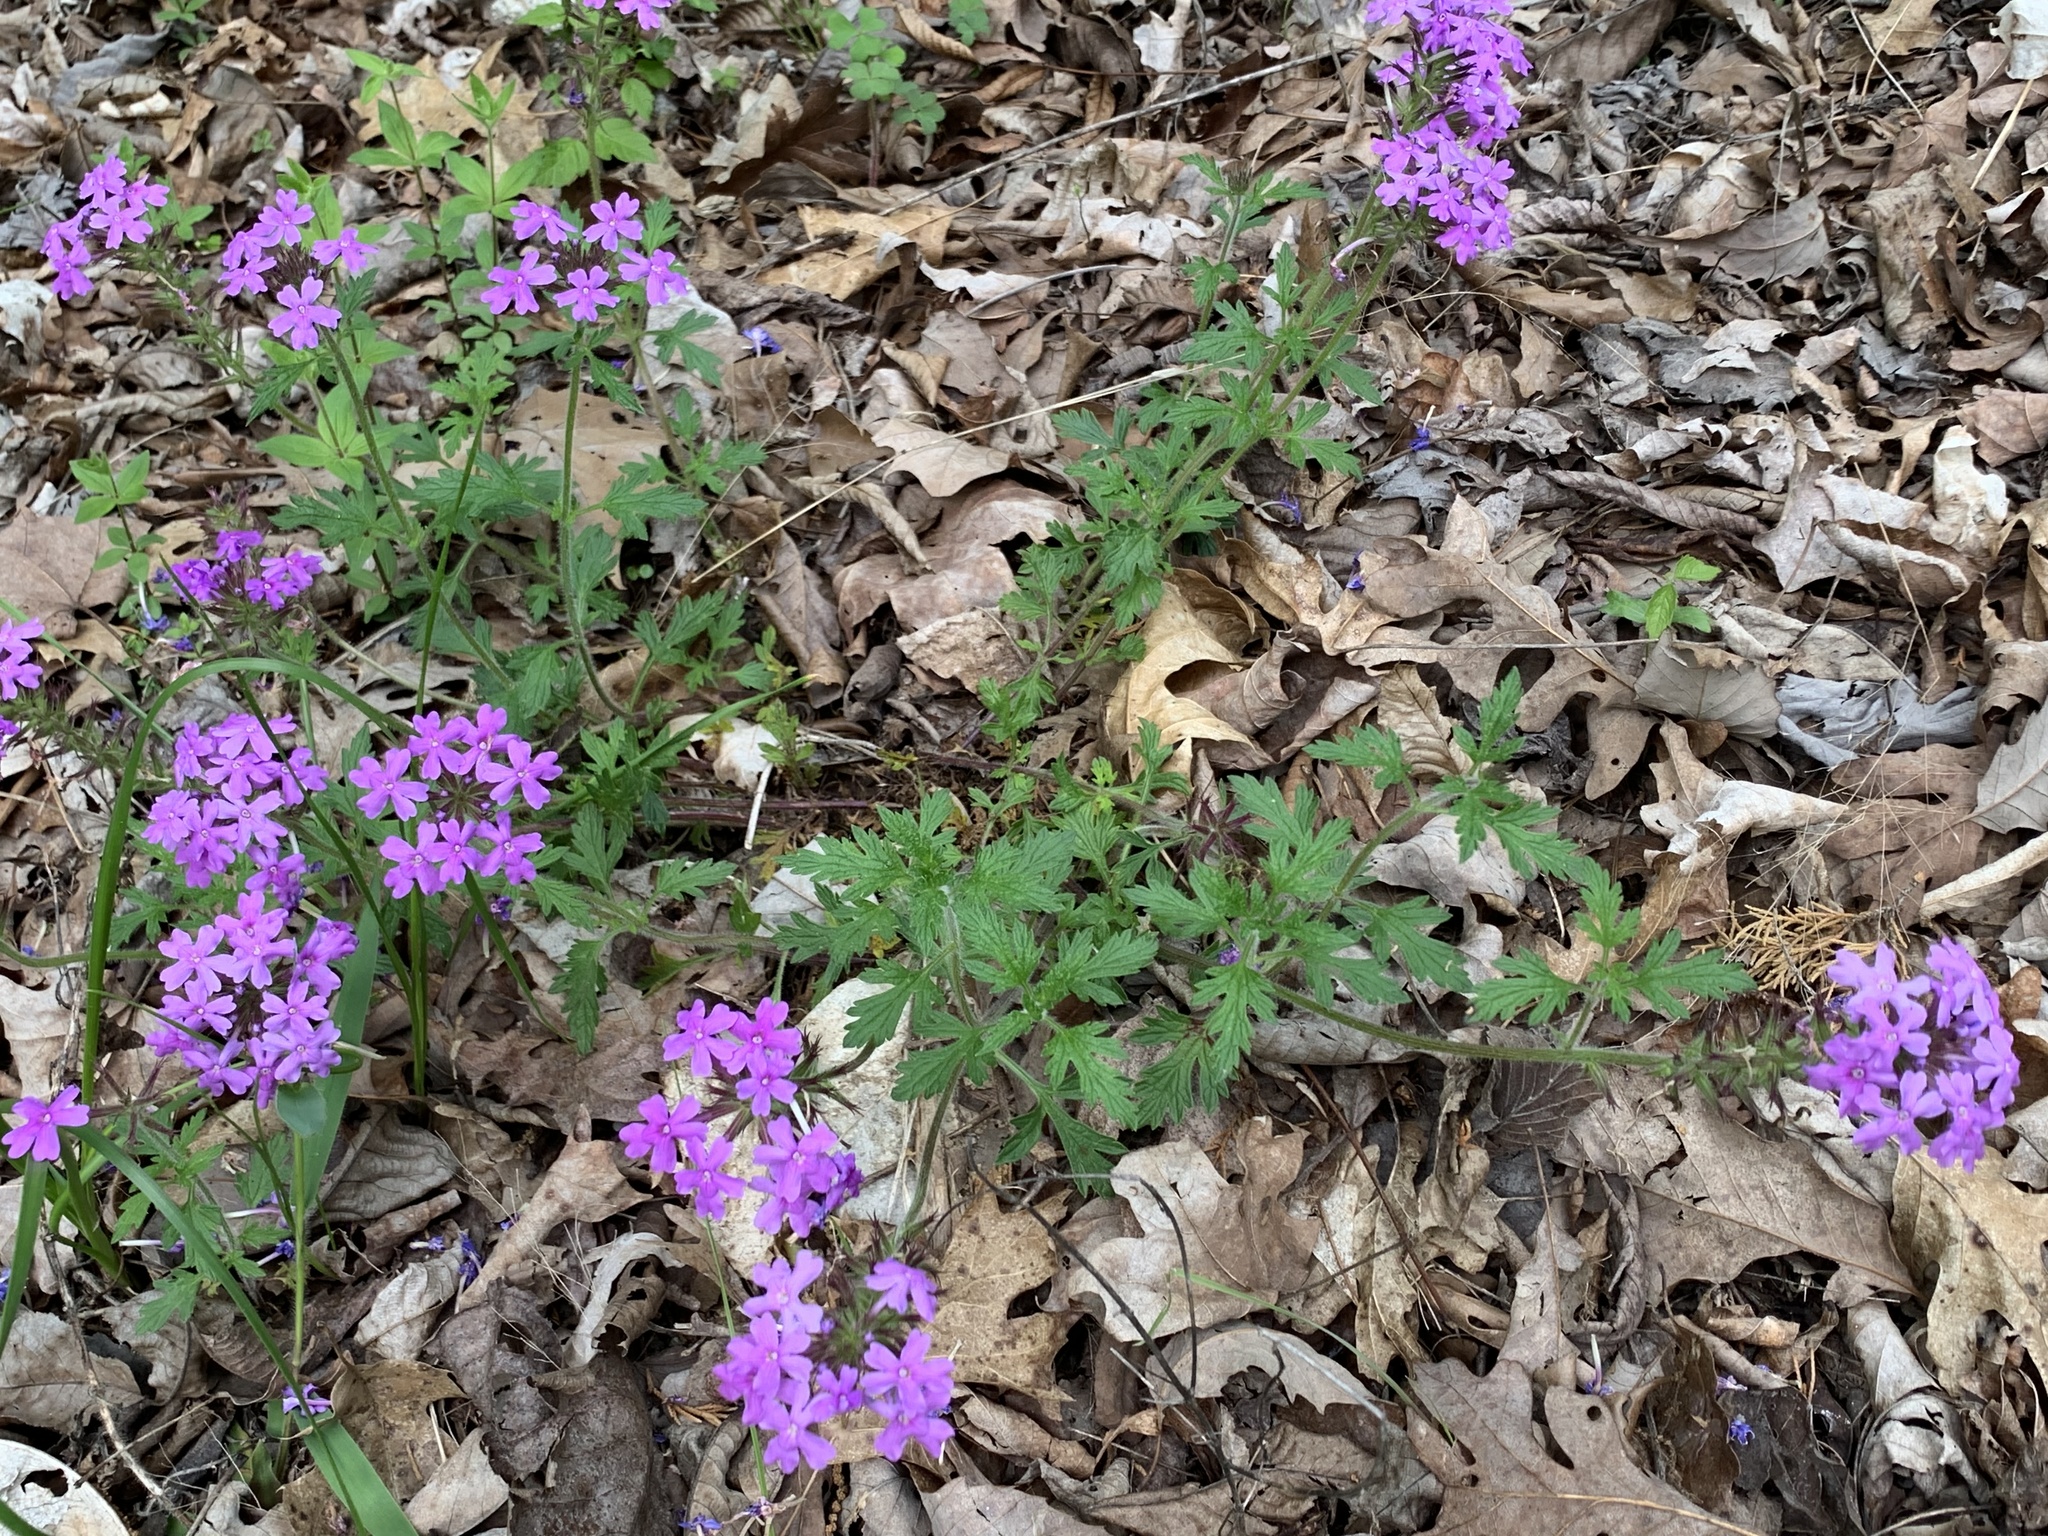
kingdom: Plantae
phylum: Tracheophyta
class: Magnoliopsida
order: Lamiales
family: Verbenaceae
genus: Verbena
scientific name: Verbena canadensis
